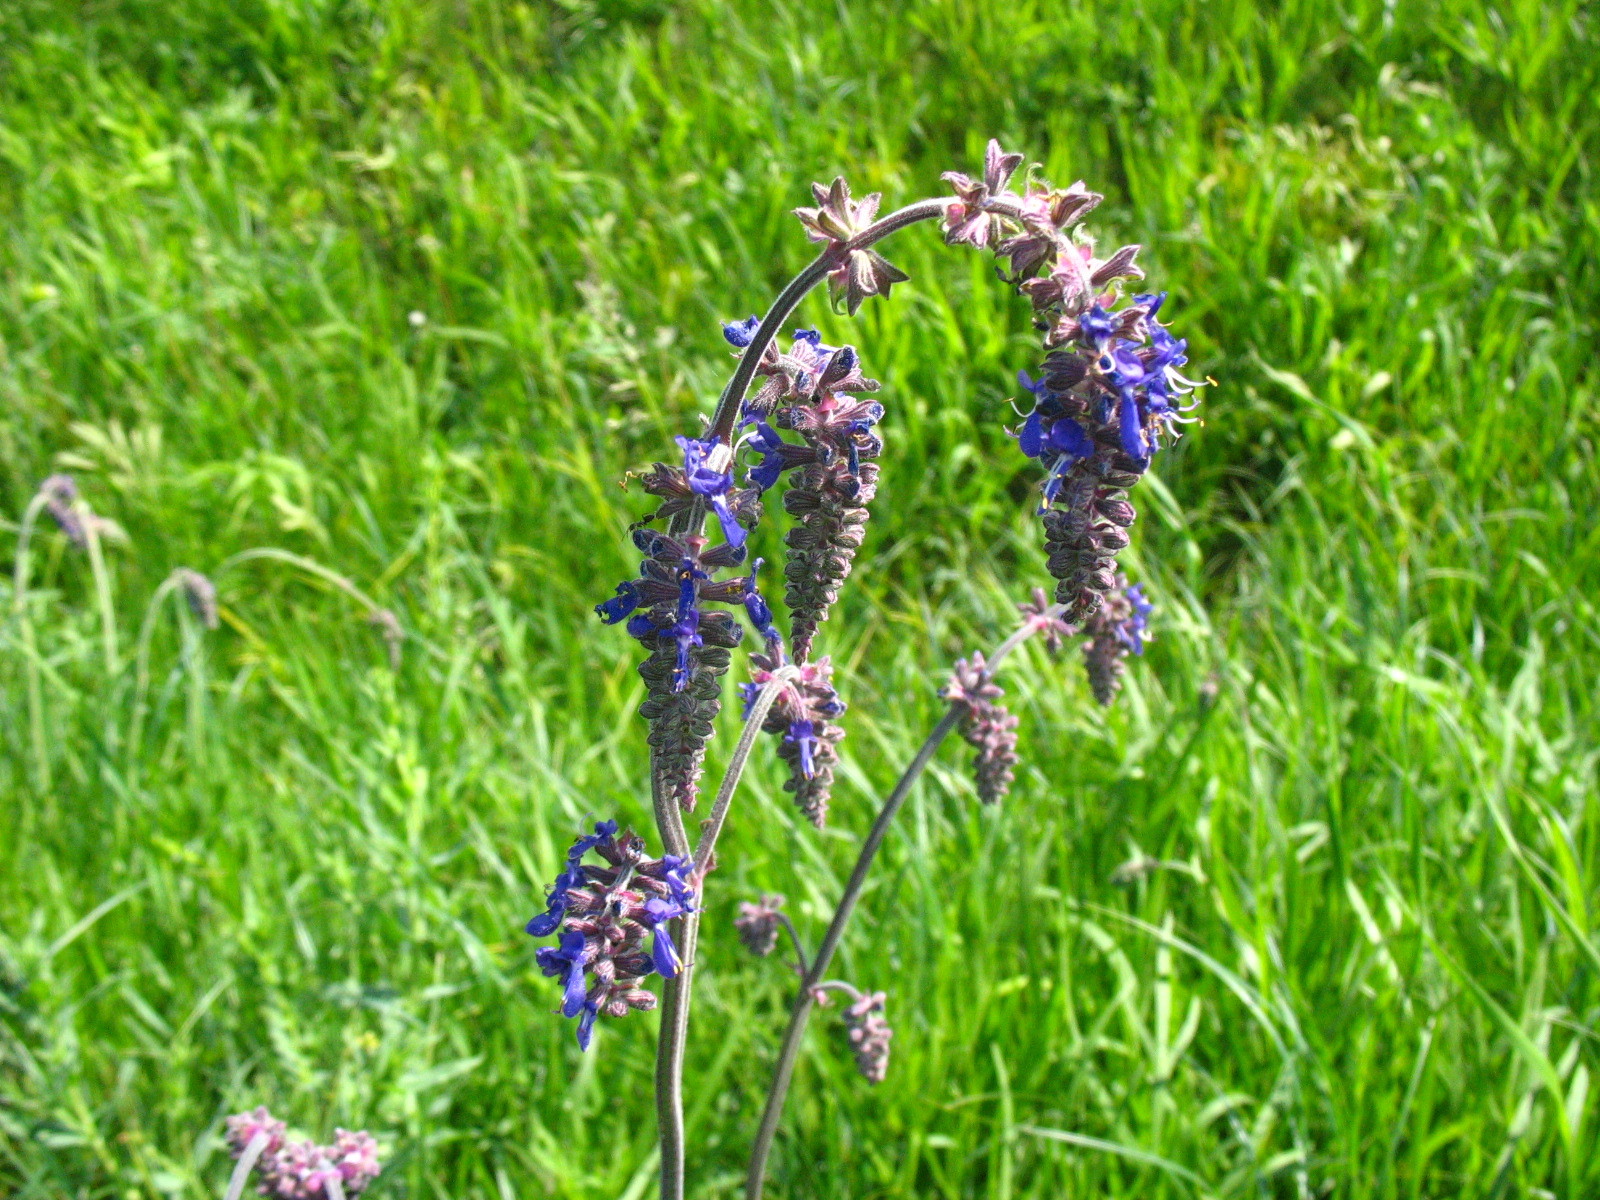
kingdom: Plantae
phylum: Tracheophyta
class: Magnoliopsida
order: Lamiales
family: Lamiaceae
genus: Salvia
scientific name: Salvia nutans
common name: Nodding sage
